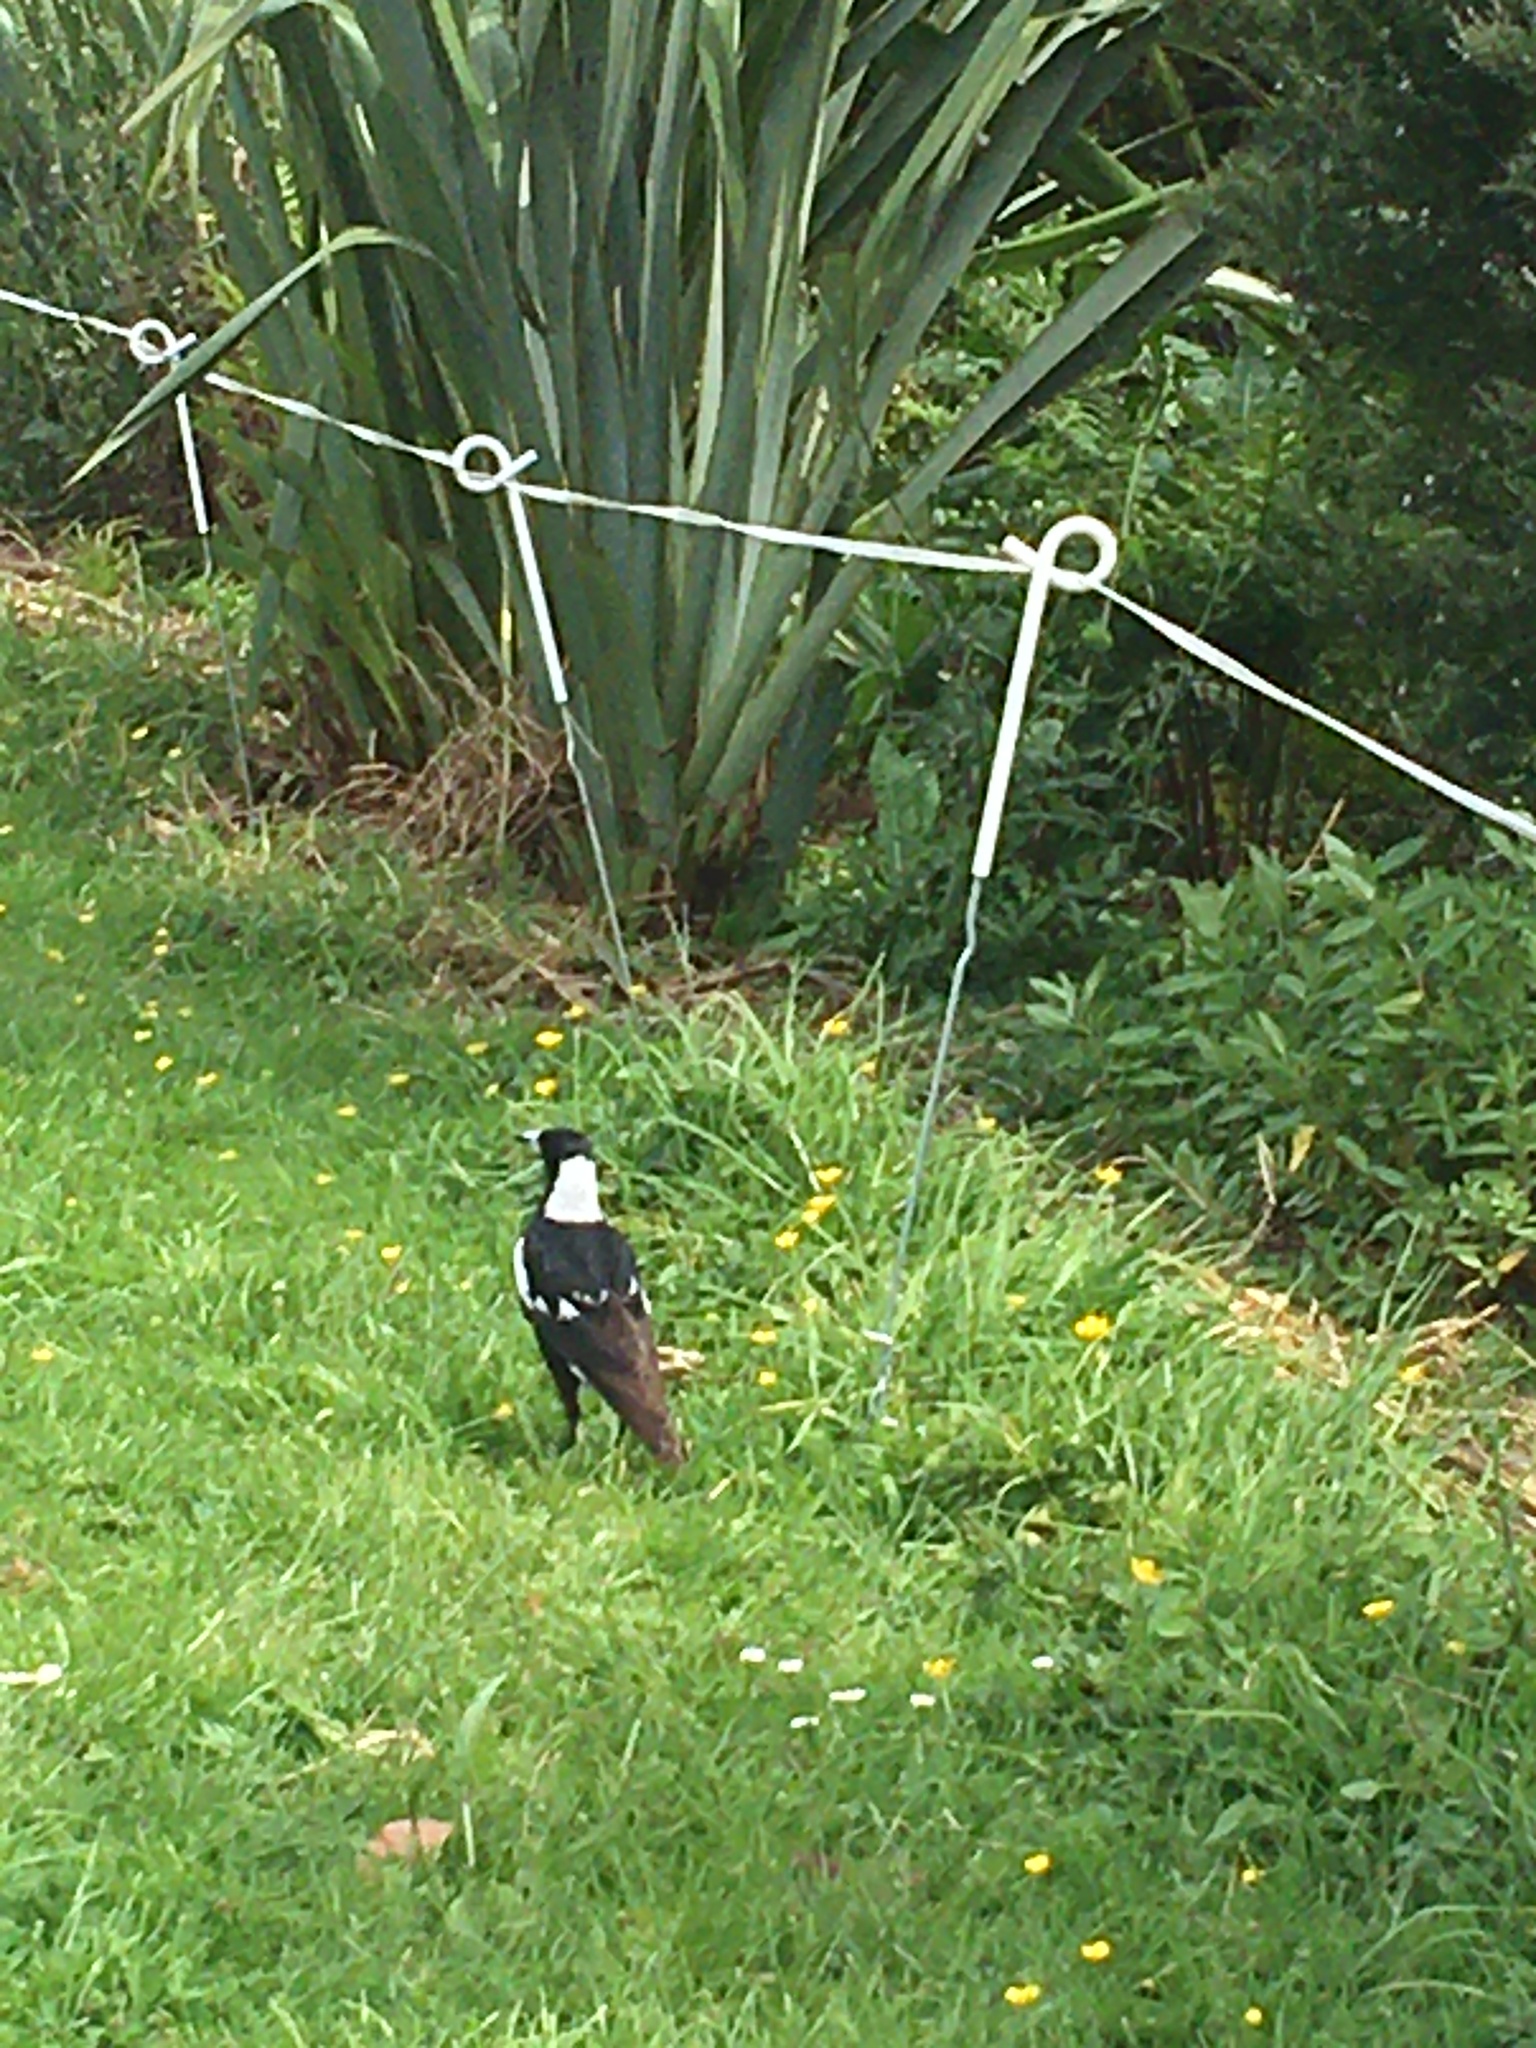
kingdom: Animalia
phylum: Chordata
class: Aves
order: Passeriformes
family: Cracticidae
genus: Gymnorhina
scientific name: Gymnorhina tibicen
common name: Australian magpie
